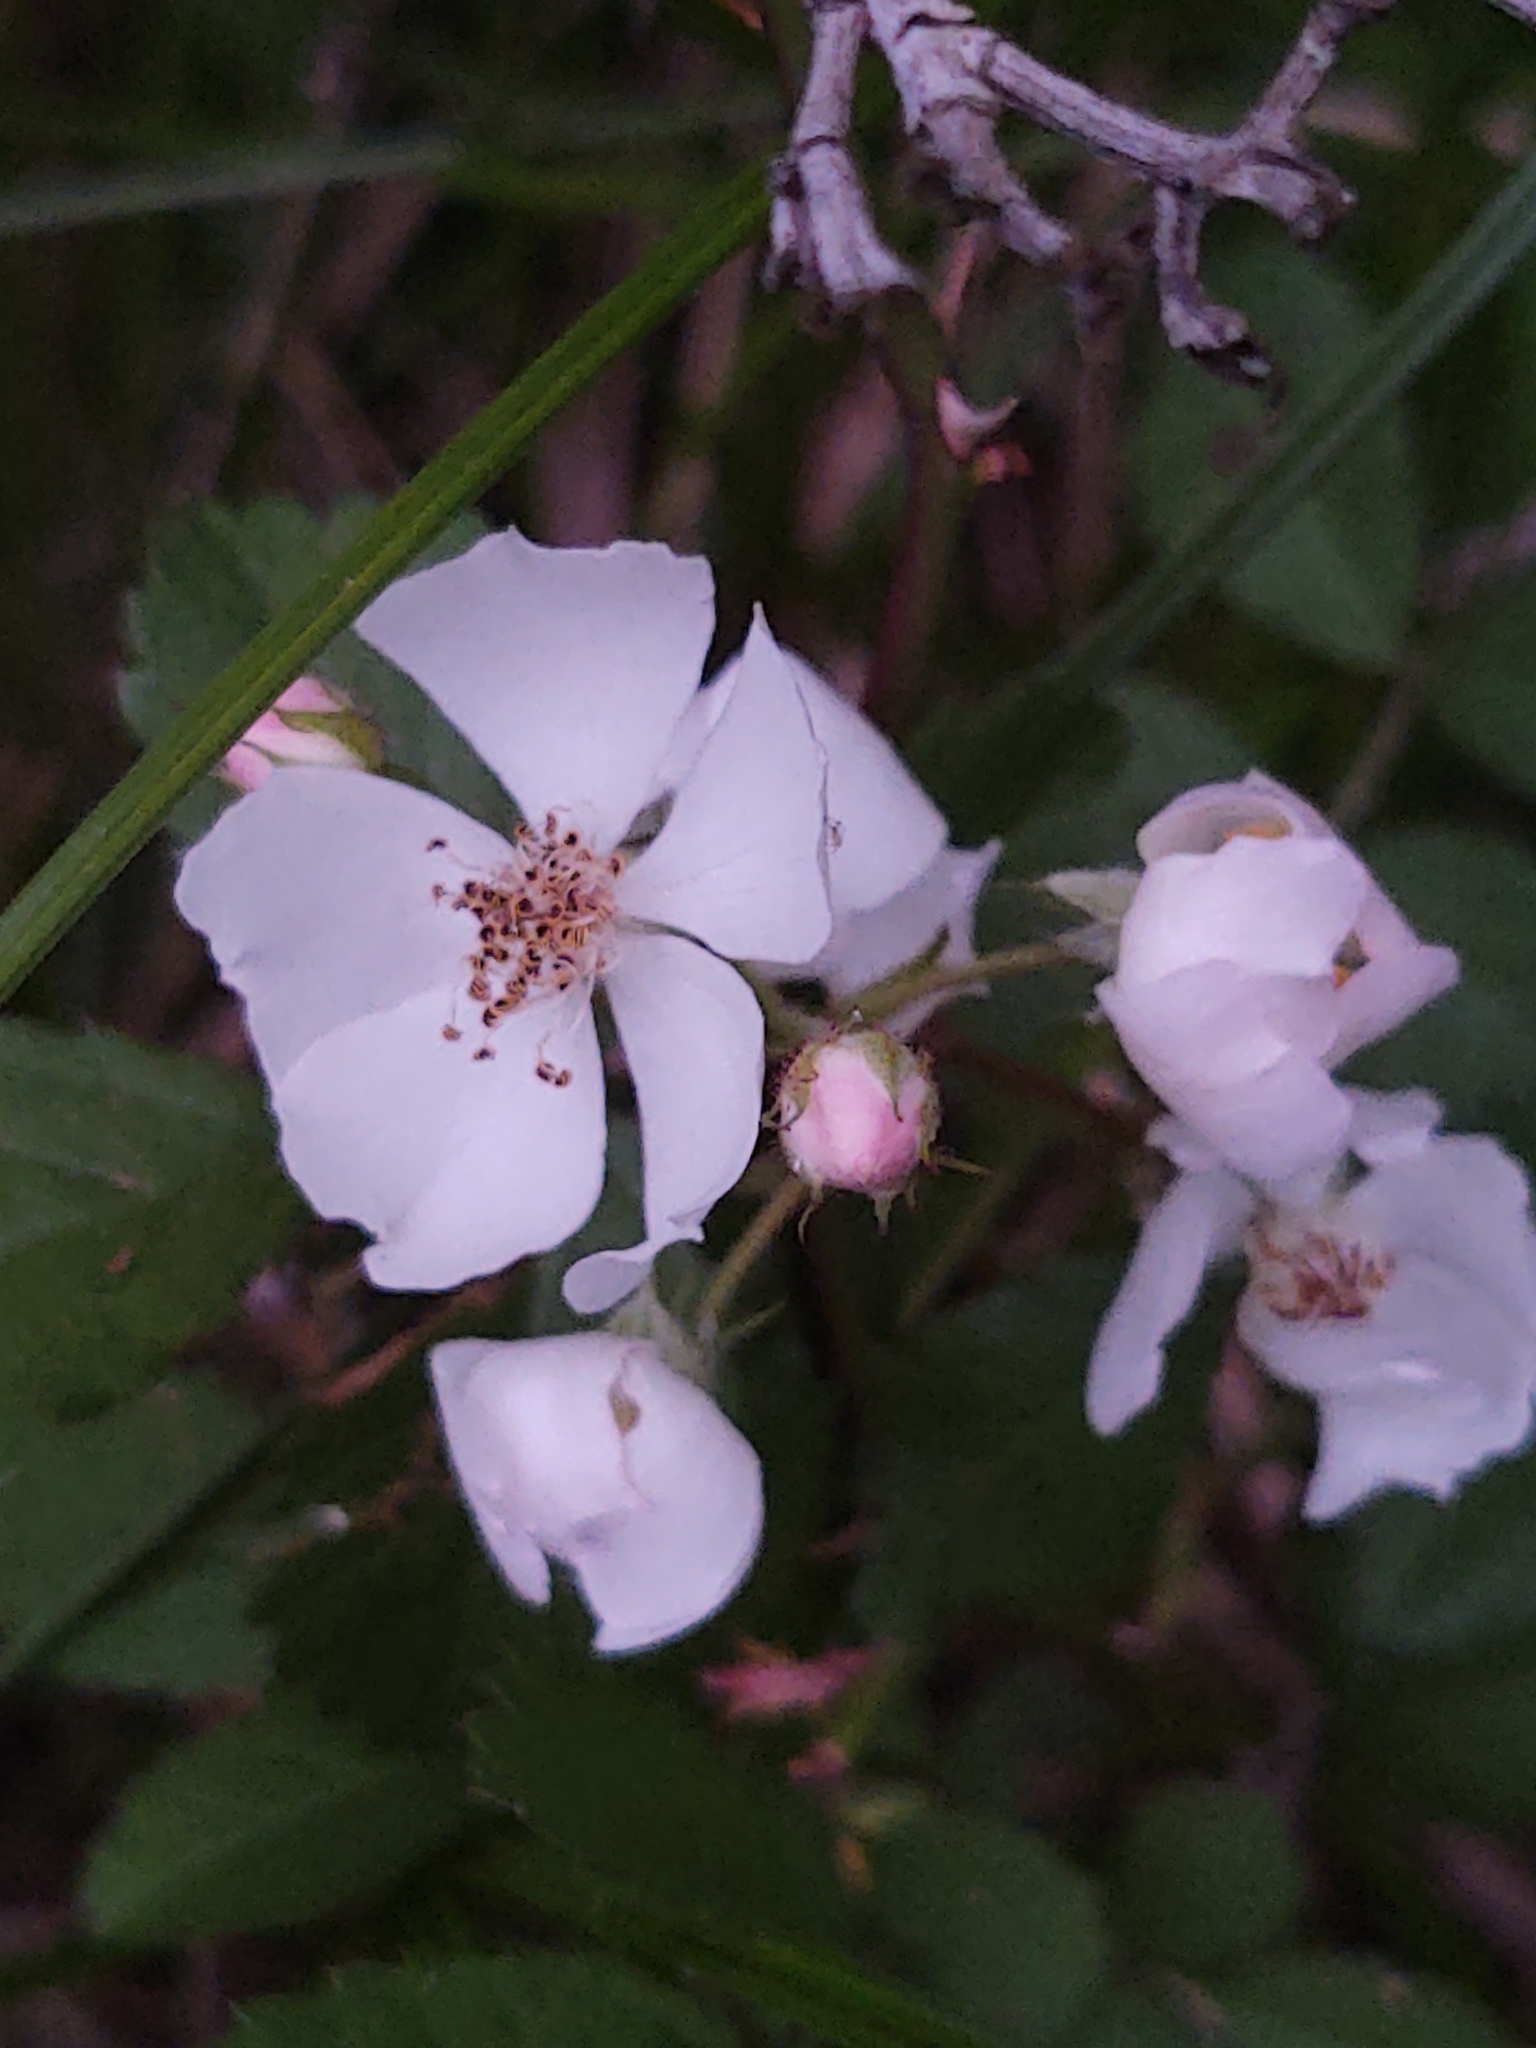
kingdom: Plantae
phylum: Tracheophyta
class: Magnoliopsida
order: Rosales
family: Rosaceae
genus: Rosa
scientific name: Rosa multiflora
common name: Multiflora rose
